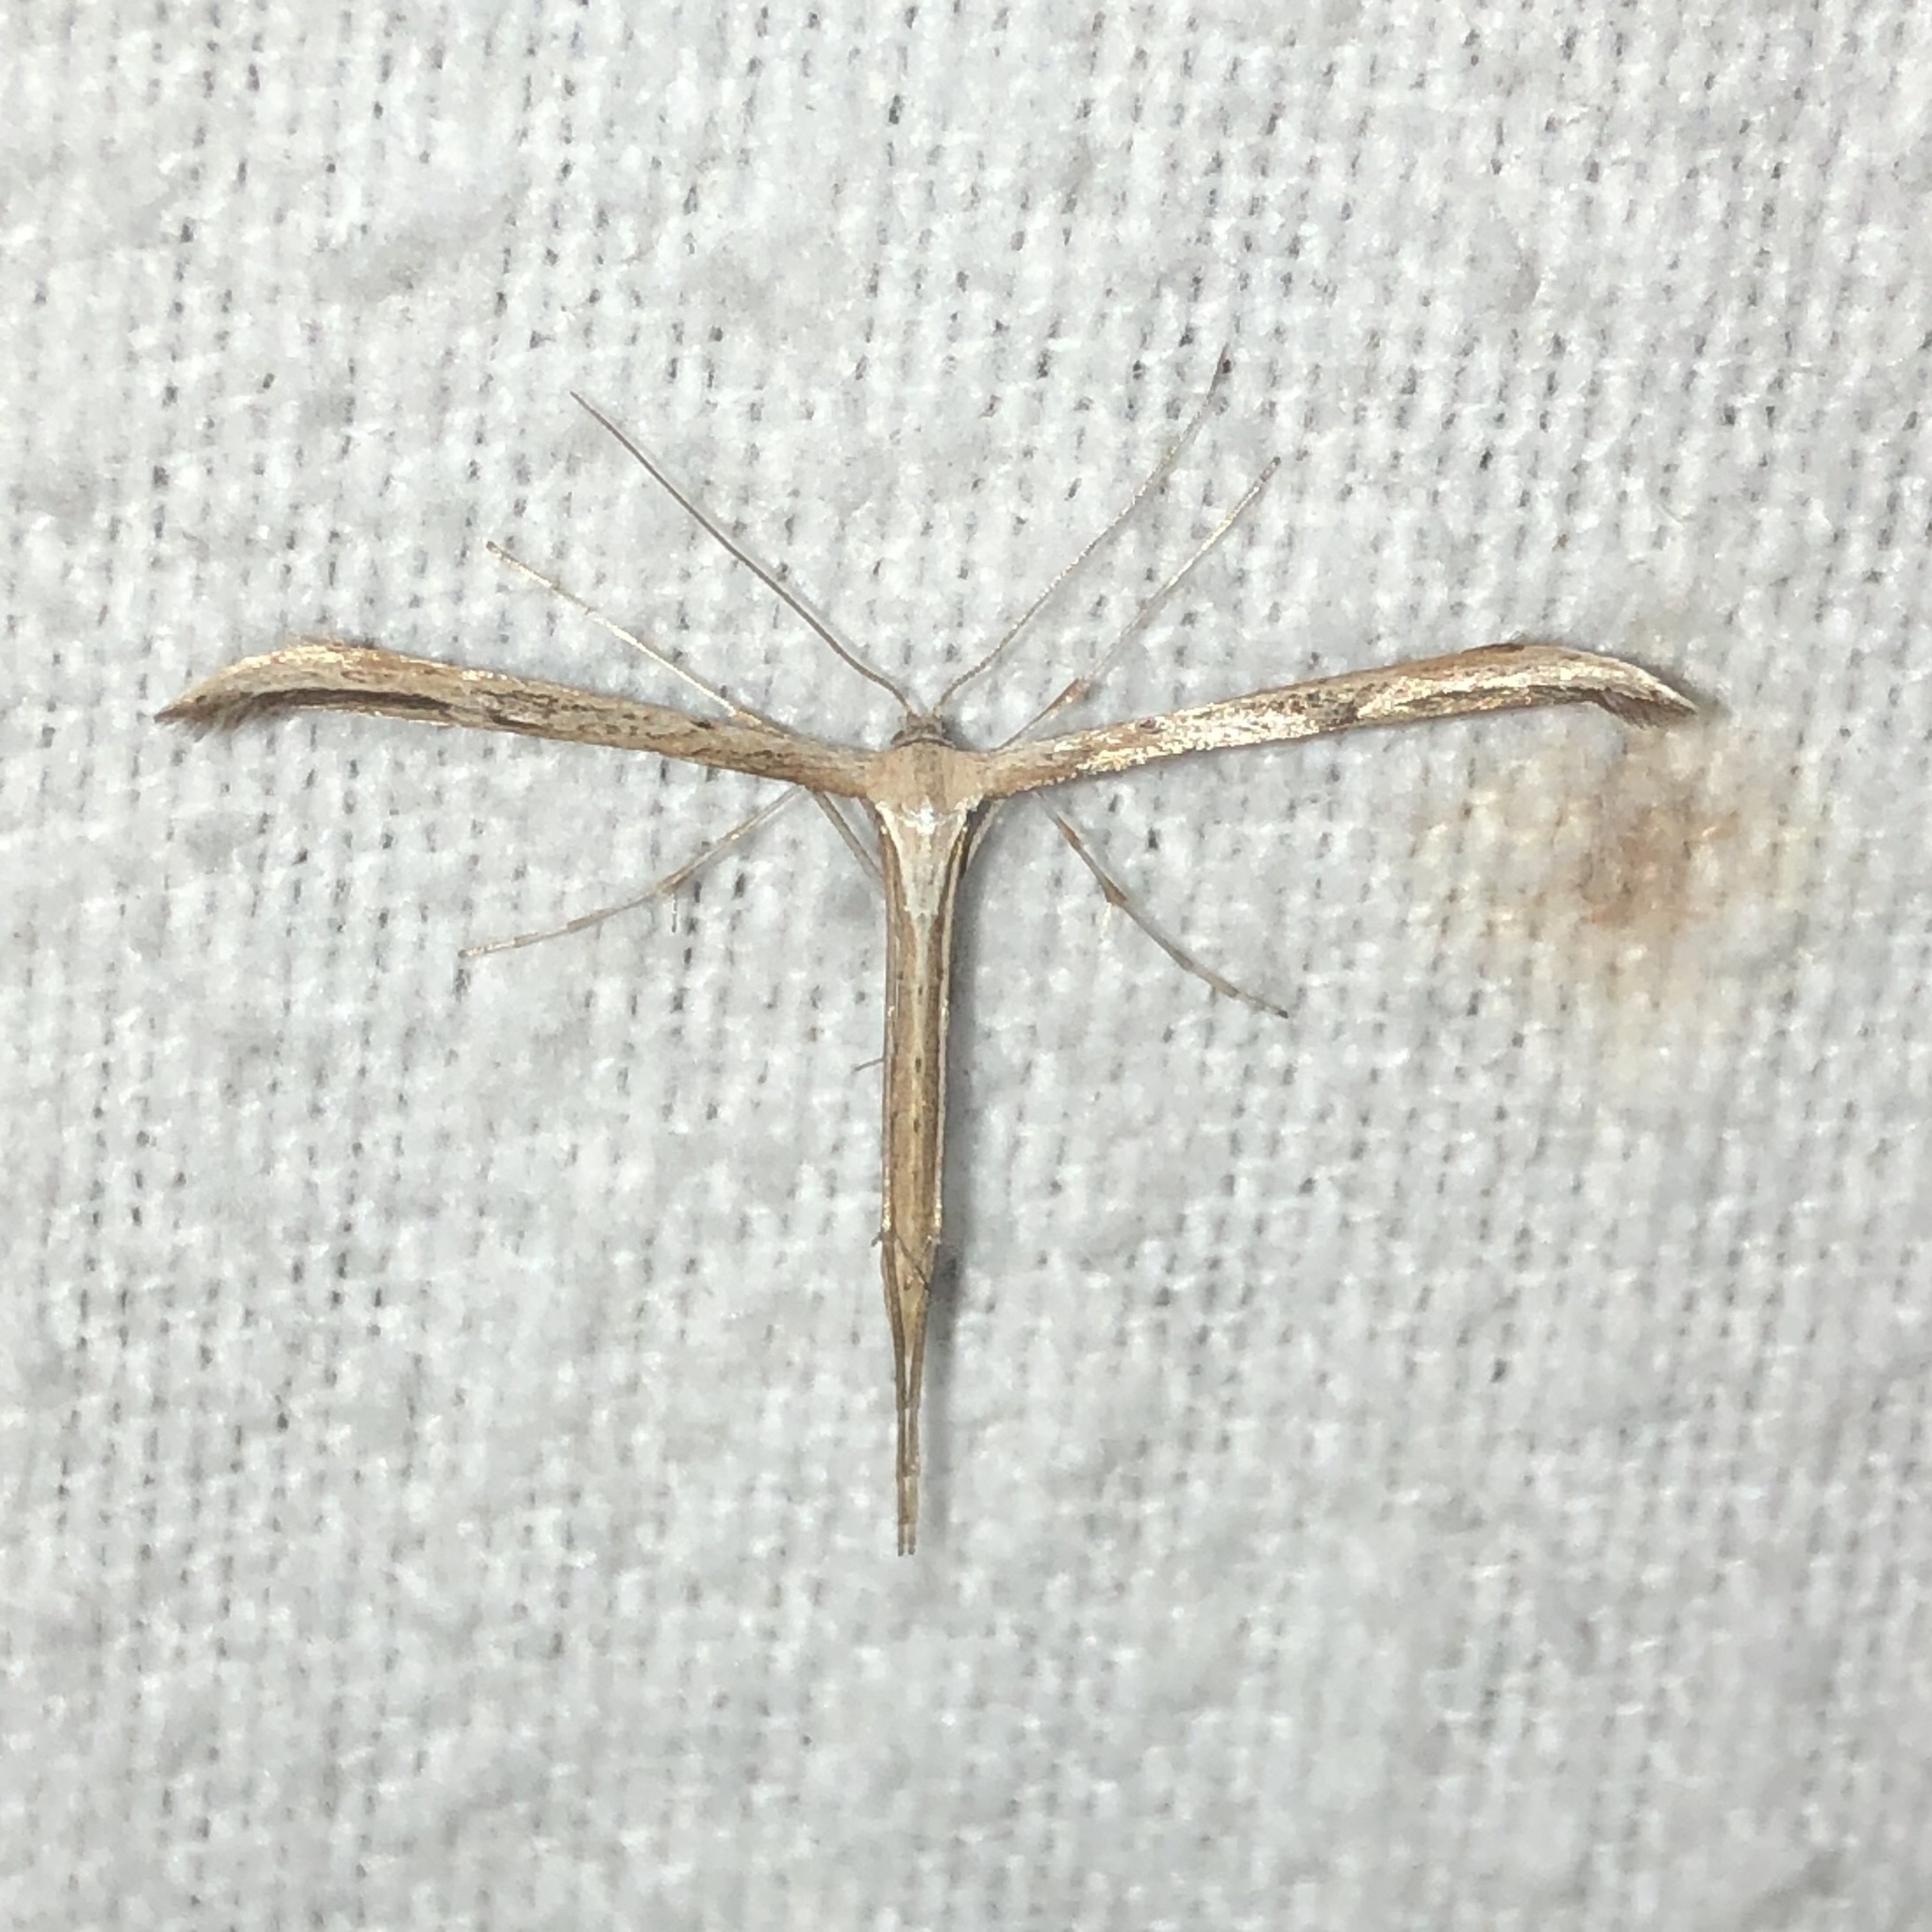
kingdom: Animalia
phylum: Arthropoda
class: Insecta
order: Lepidoptera
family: Pterophoridae
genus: Emmelina
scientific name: Emmelina monodactyla
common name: Common plume
